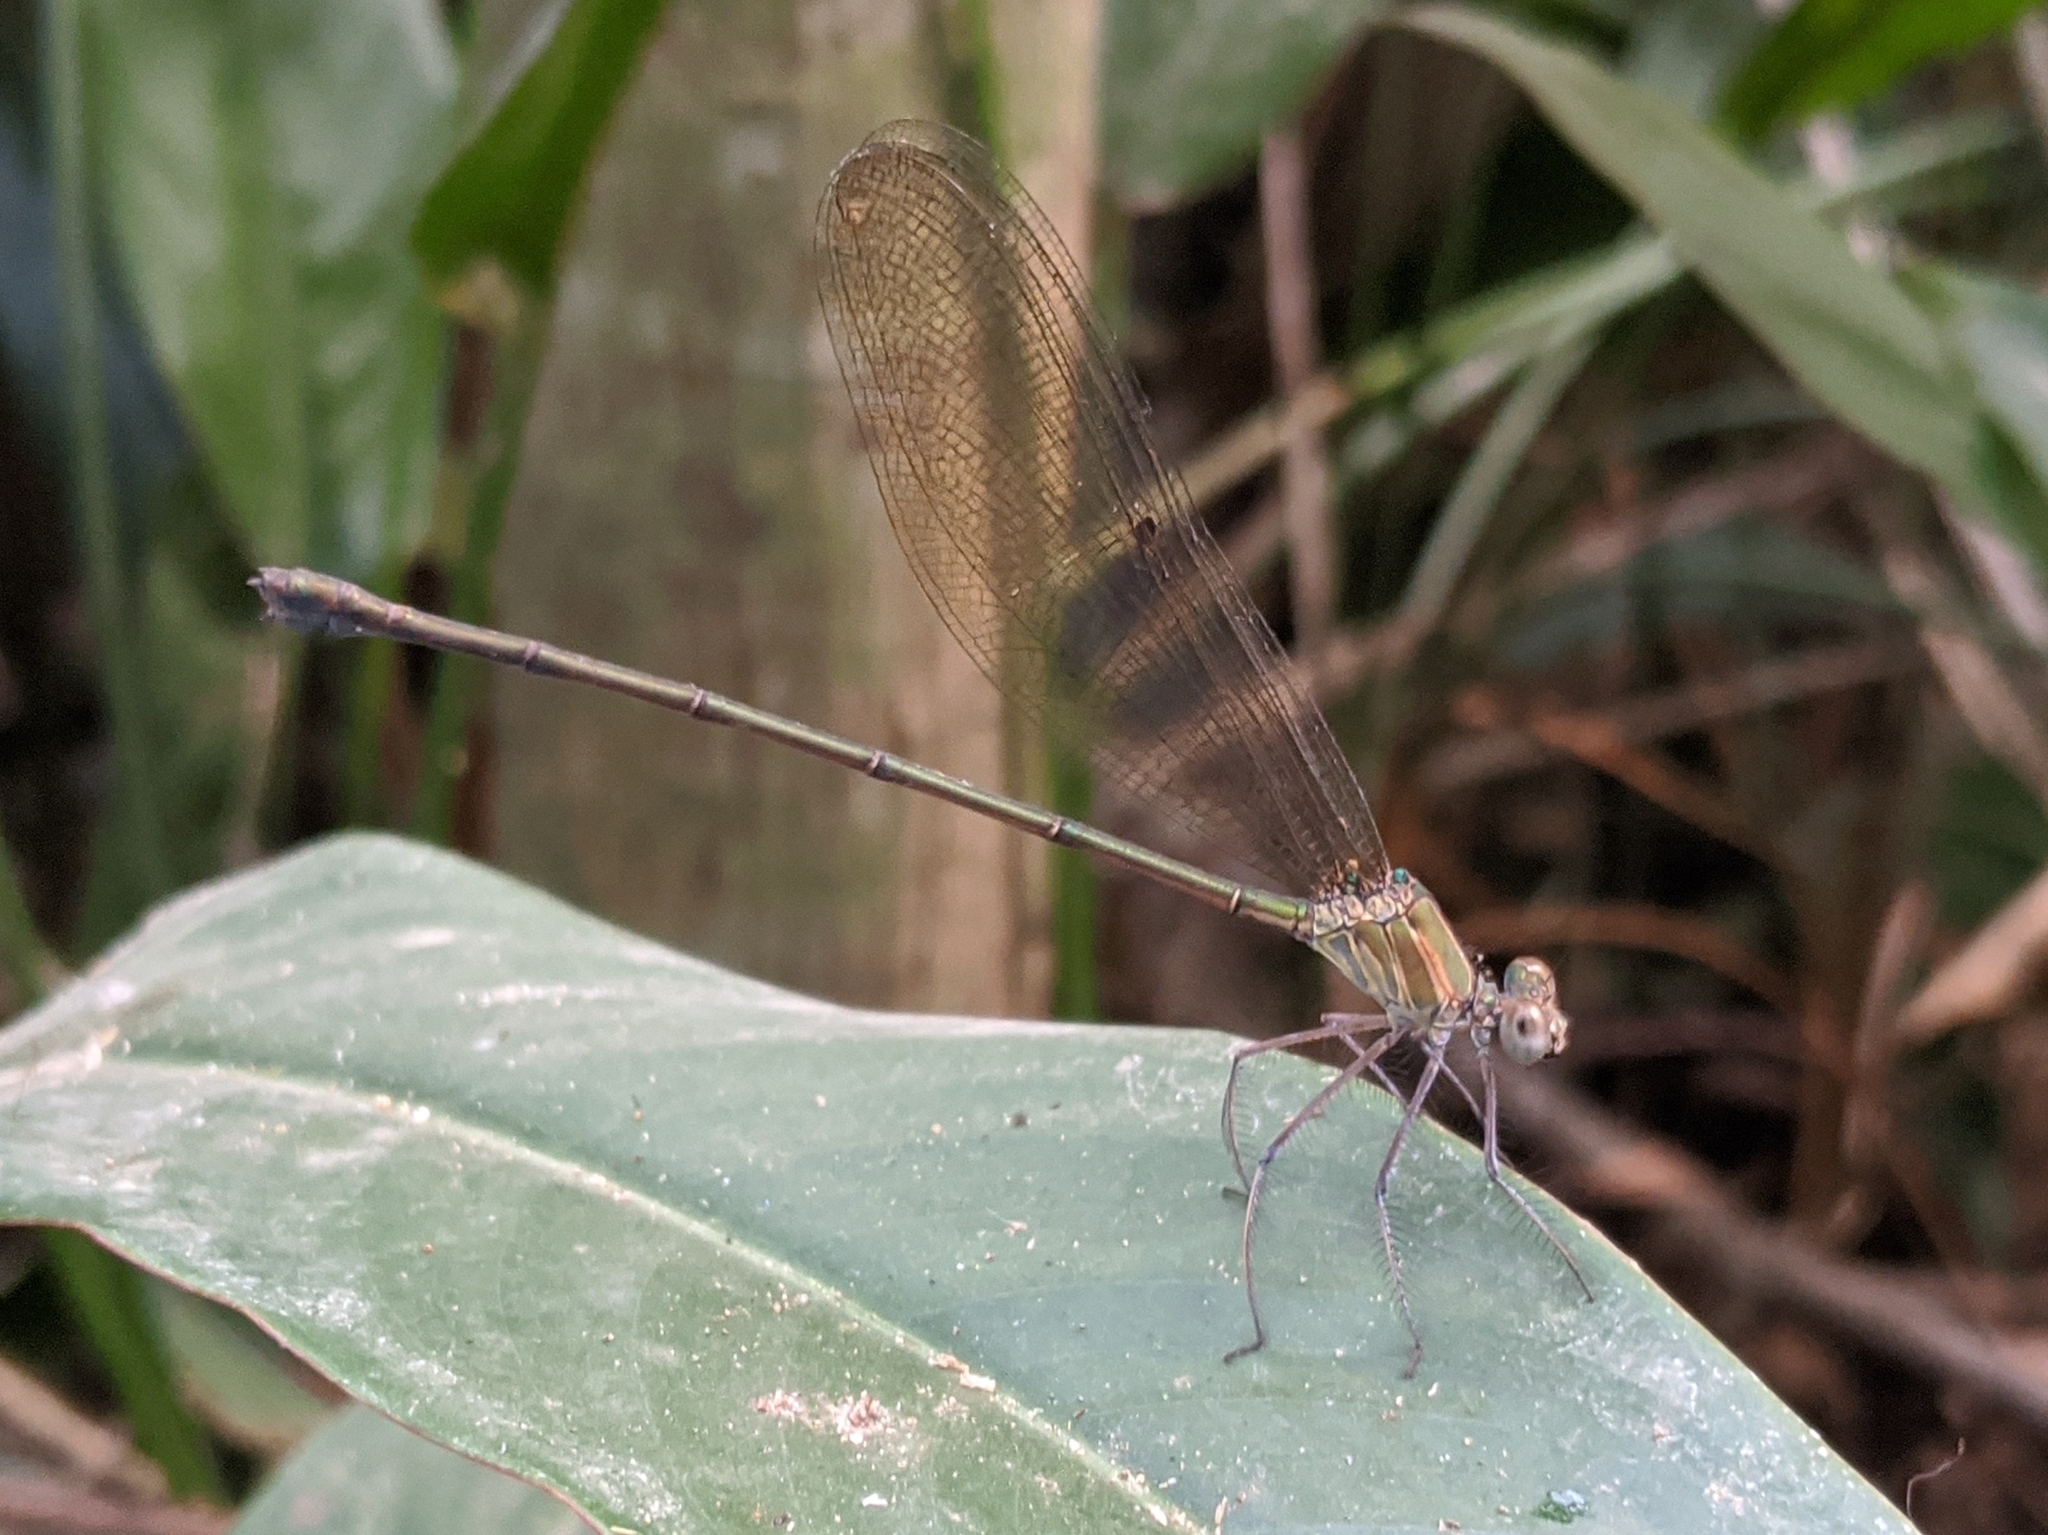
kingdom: Animalia
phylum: Arthropoda
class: Insecta
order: Odonata
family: Calopterygidae
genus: Phaon
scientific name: Phaon iridipennis
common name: Glistening demoiselle
